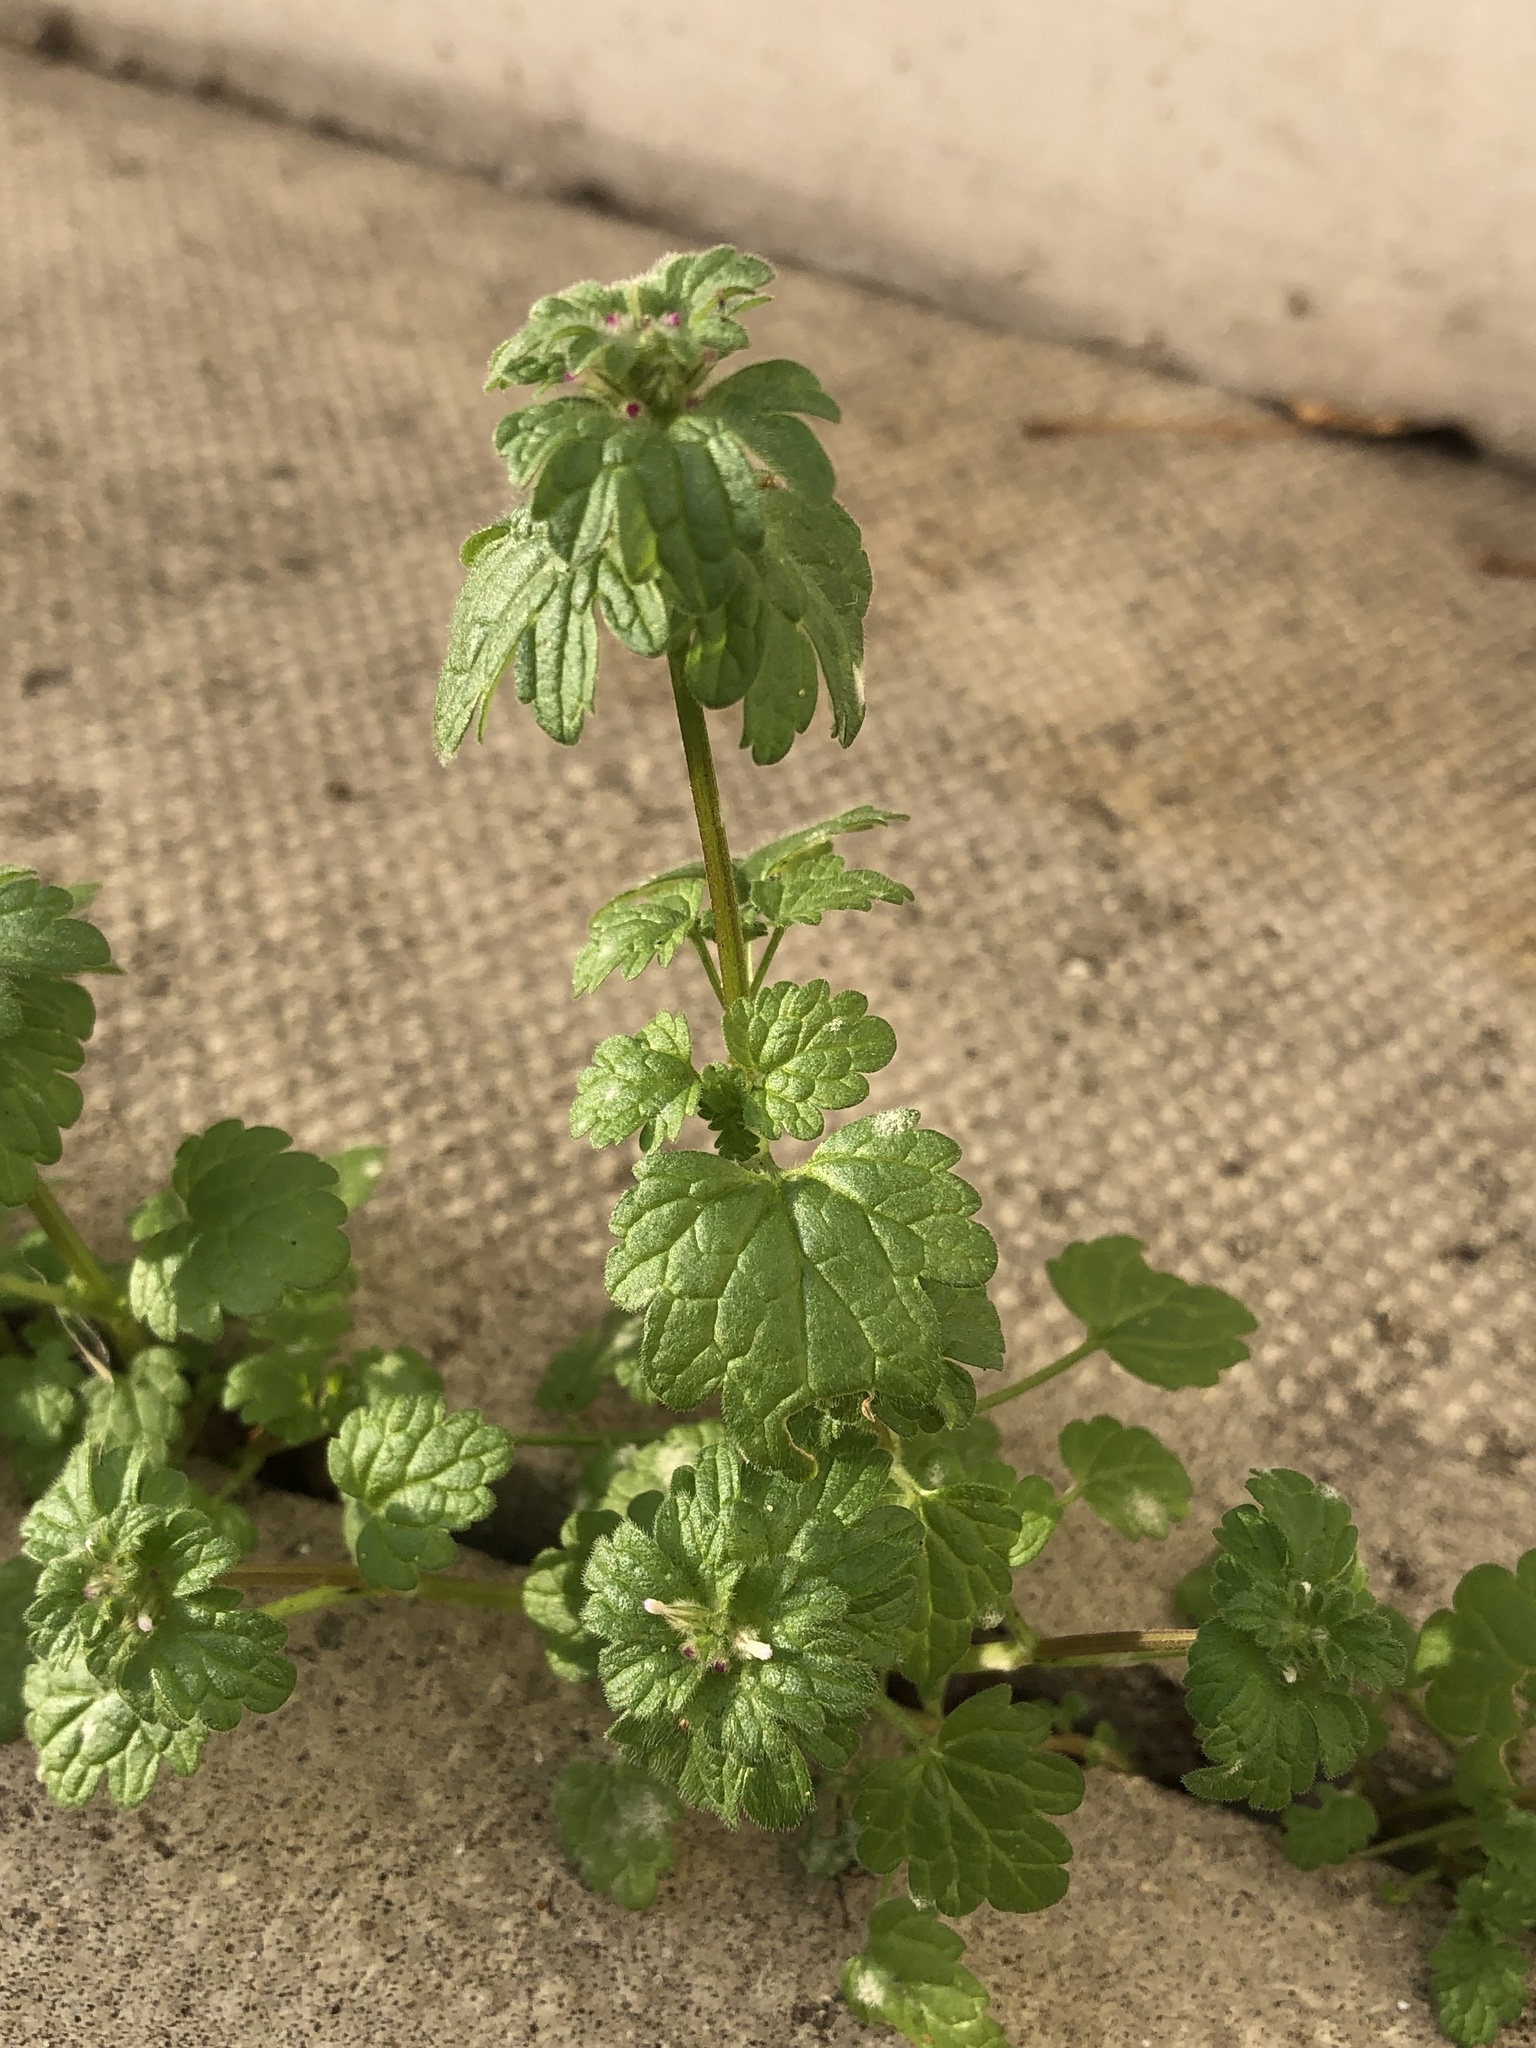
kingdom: Plantae
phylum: Tracheophyta
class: Magnoliopsida
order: Lamiales
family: Lamiaceae
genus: Lamium
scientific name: Lamium amplexicaule
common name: Henbit dead-nettle
